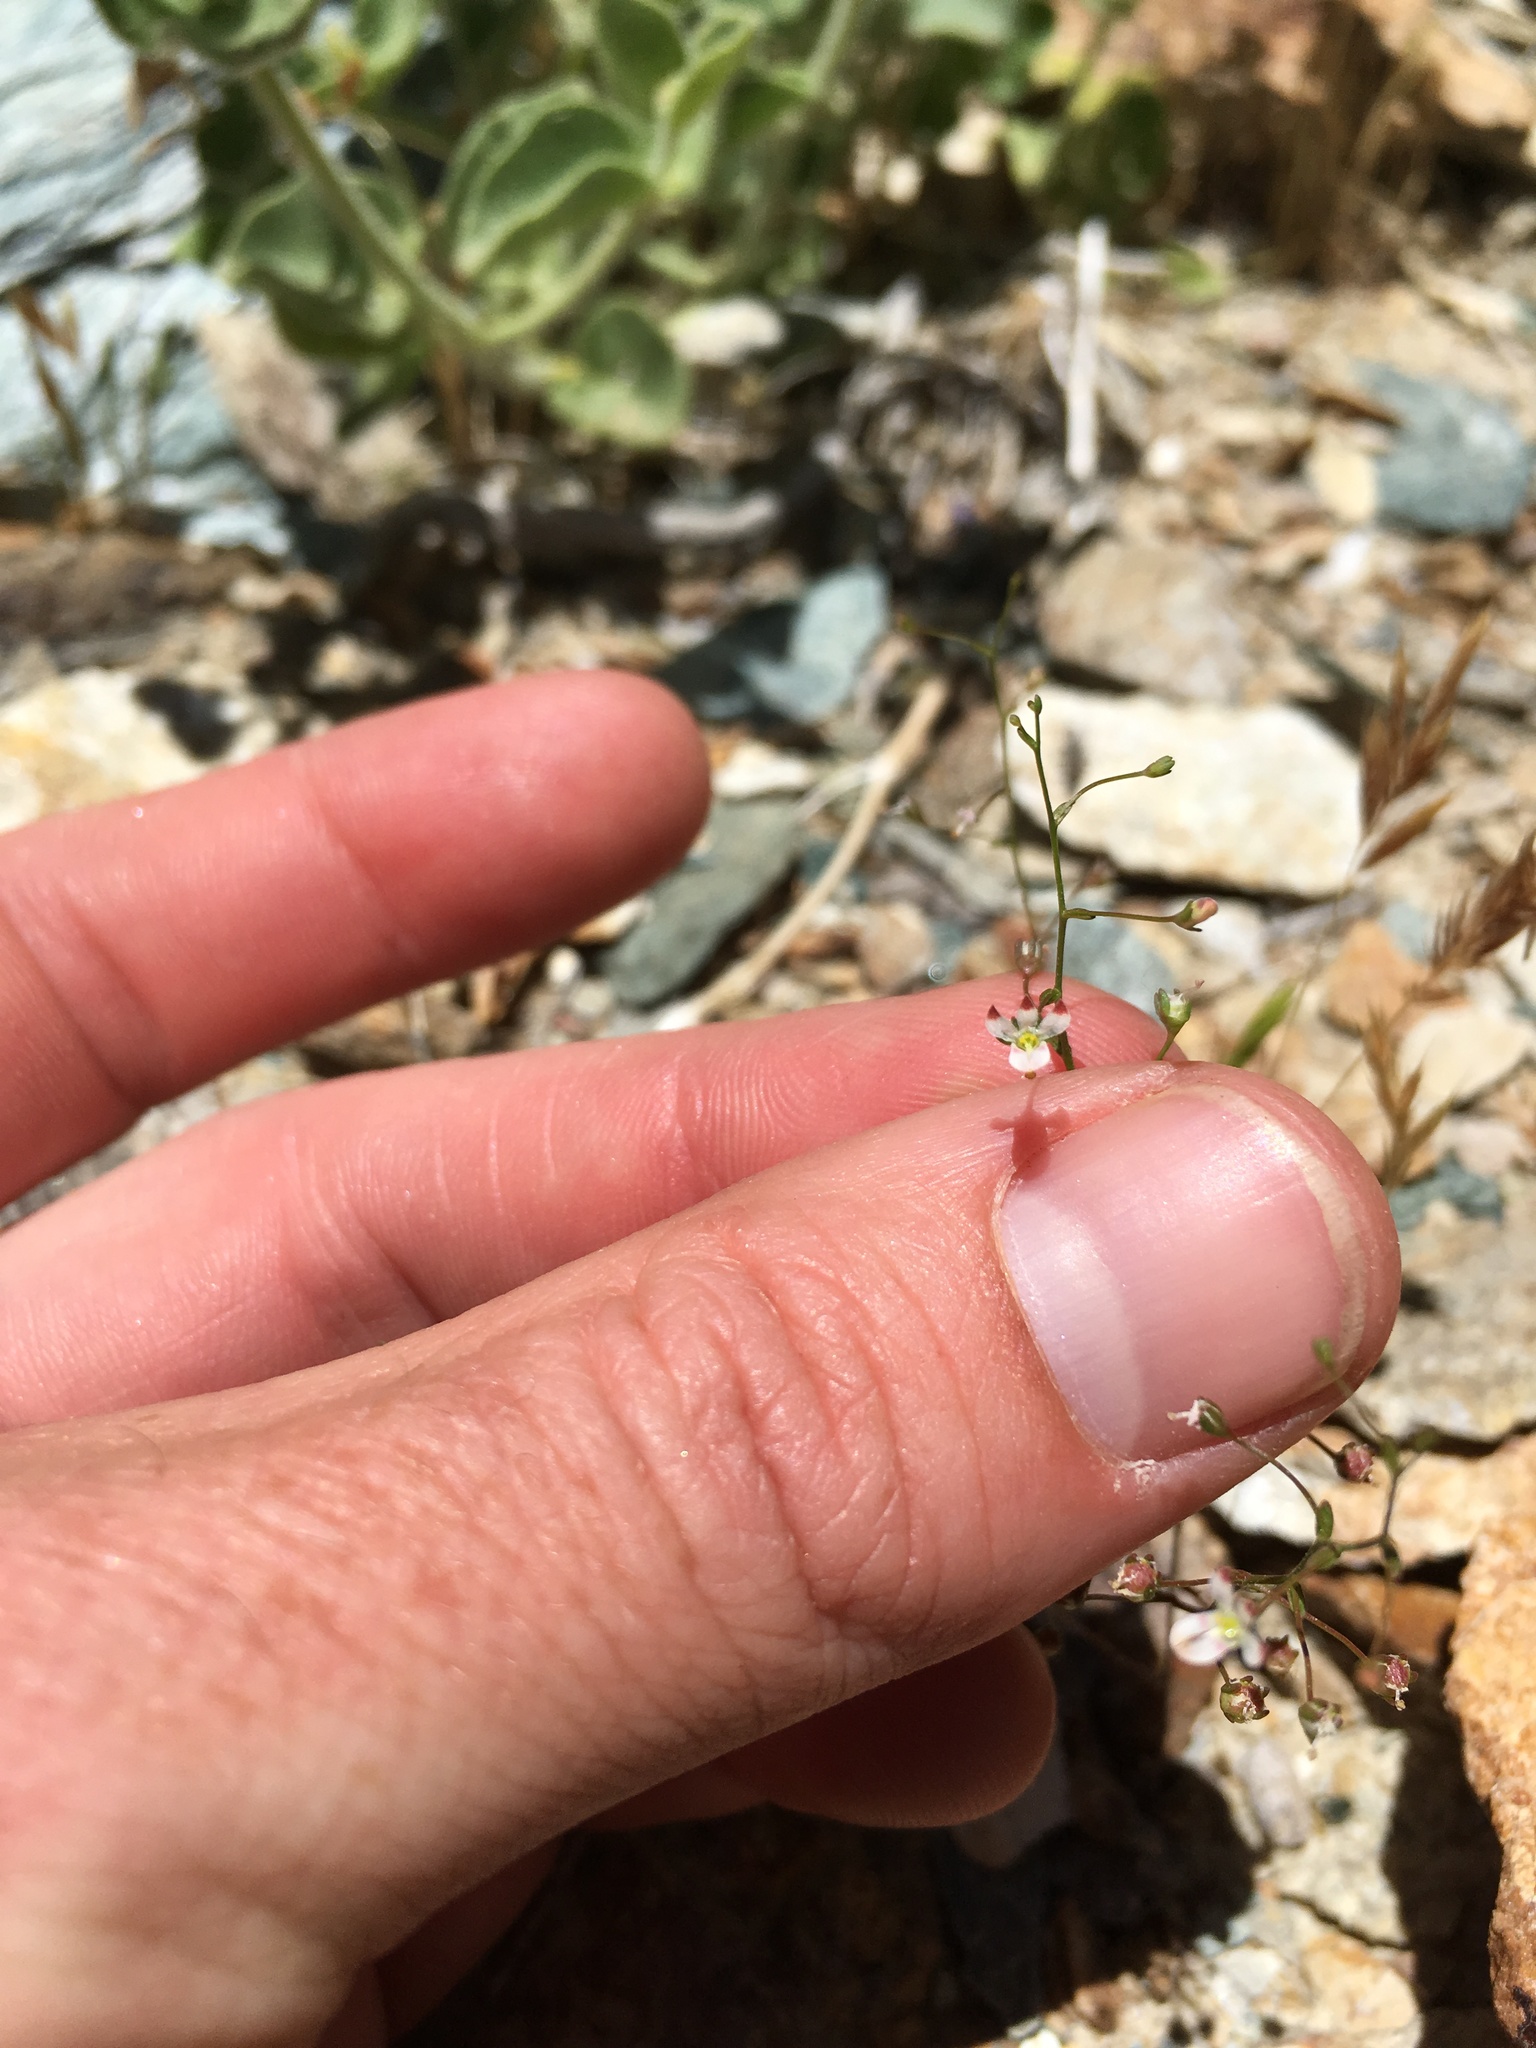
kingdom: Plantae
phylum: Tracheophyta
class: Magnoliopsida
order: Asterales
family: Campanulaceae
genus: Nemacladus
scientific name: Nemacladus orientalis
